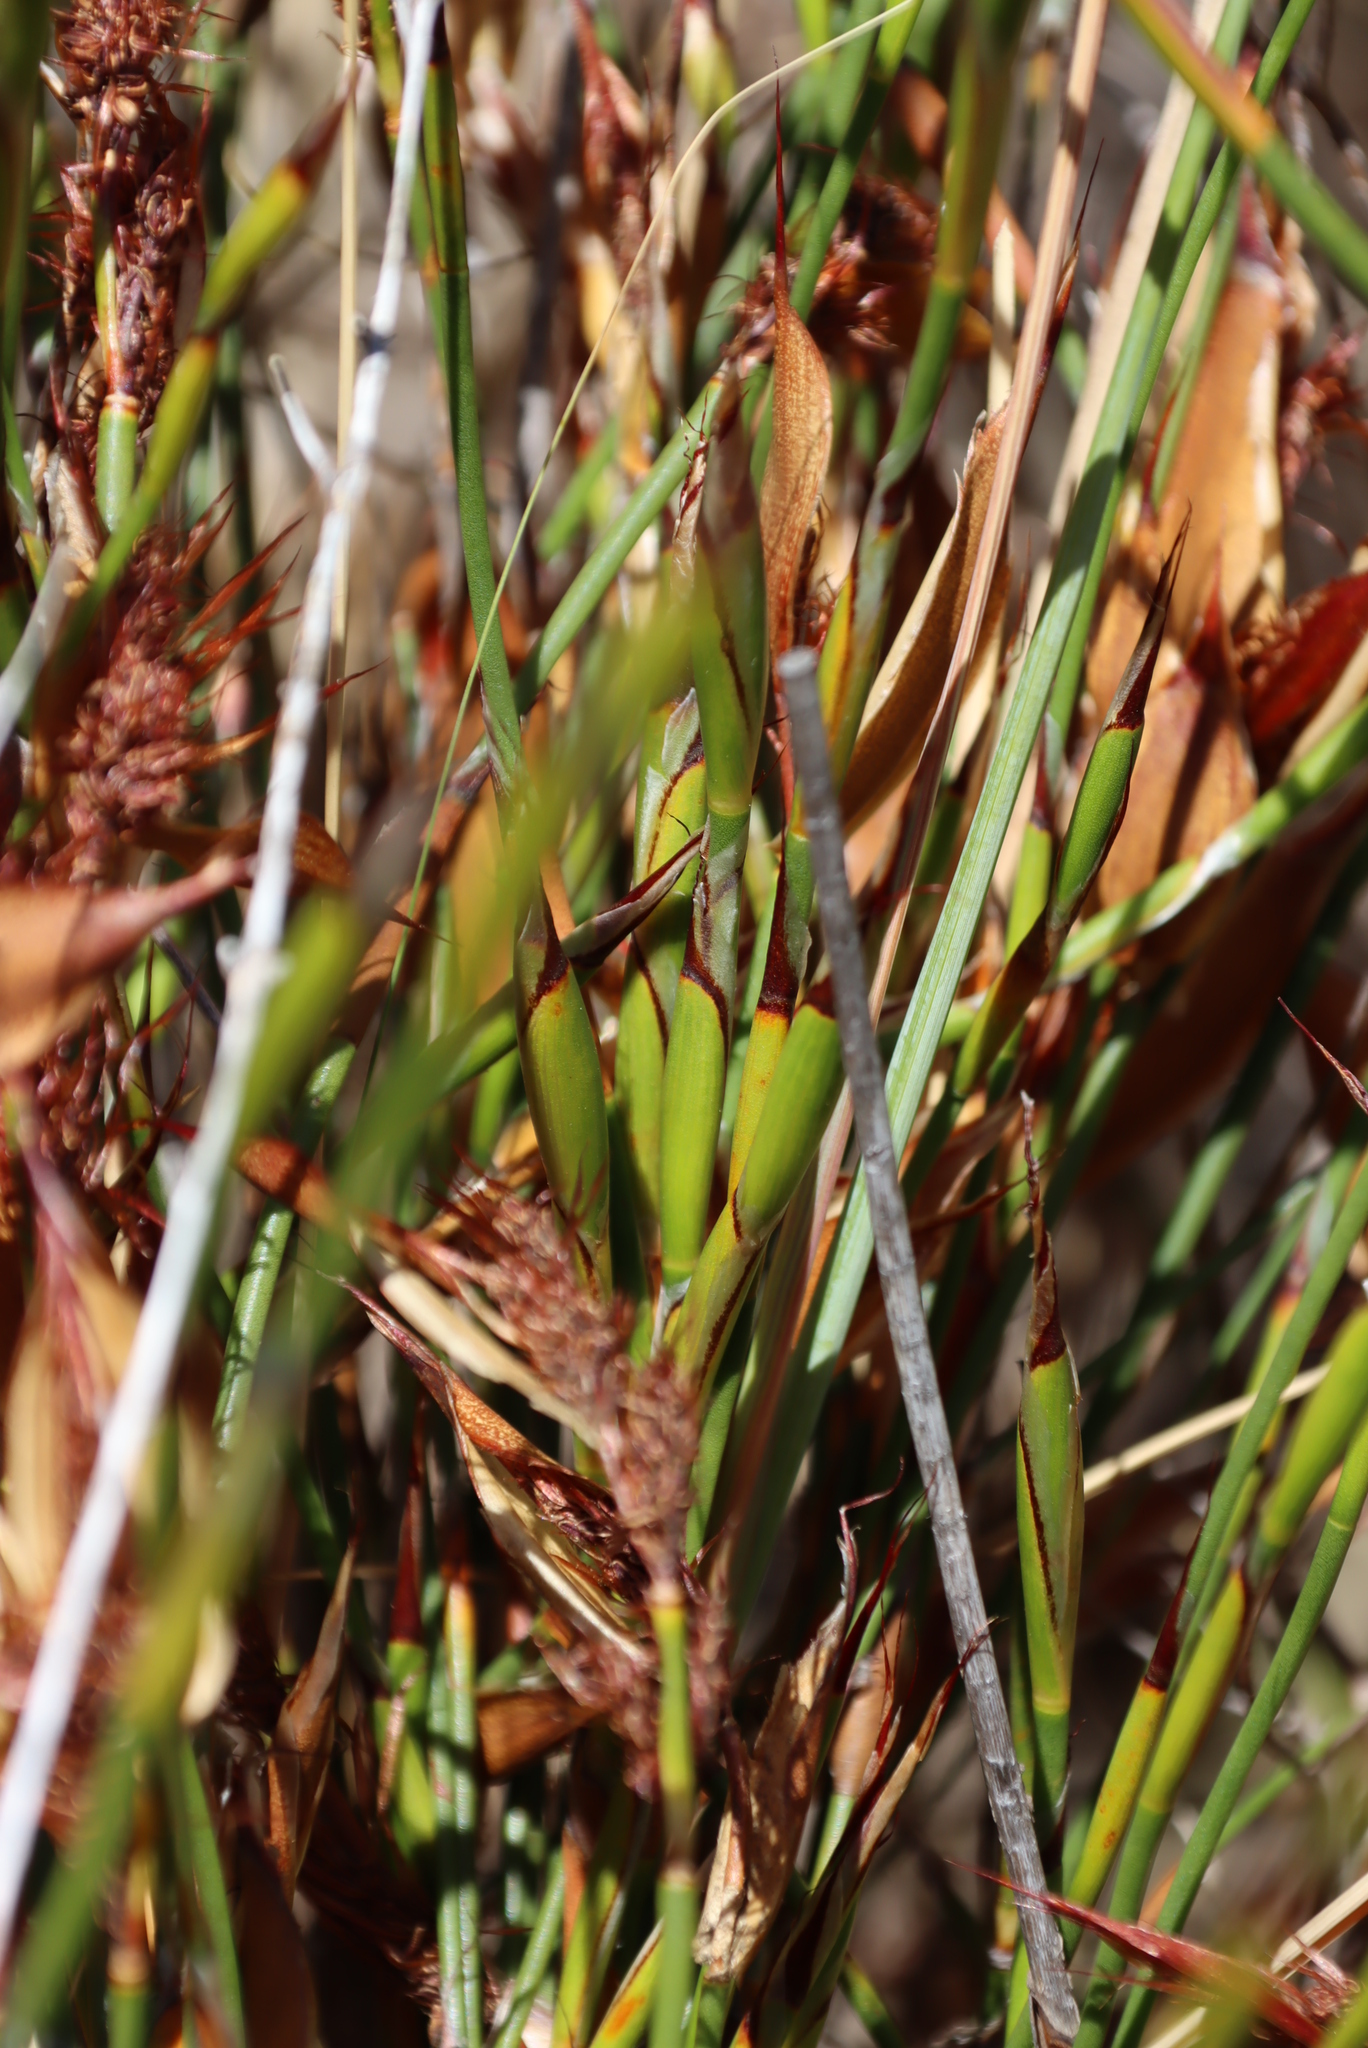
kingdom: Plantae
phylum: Tracheophyta
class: Liliopsida
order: Poales
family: Restionaceae
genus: Willdenowia
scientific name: Willdenowia glomerata
